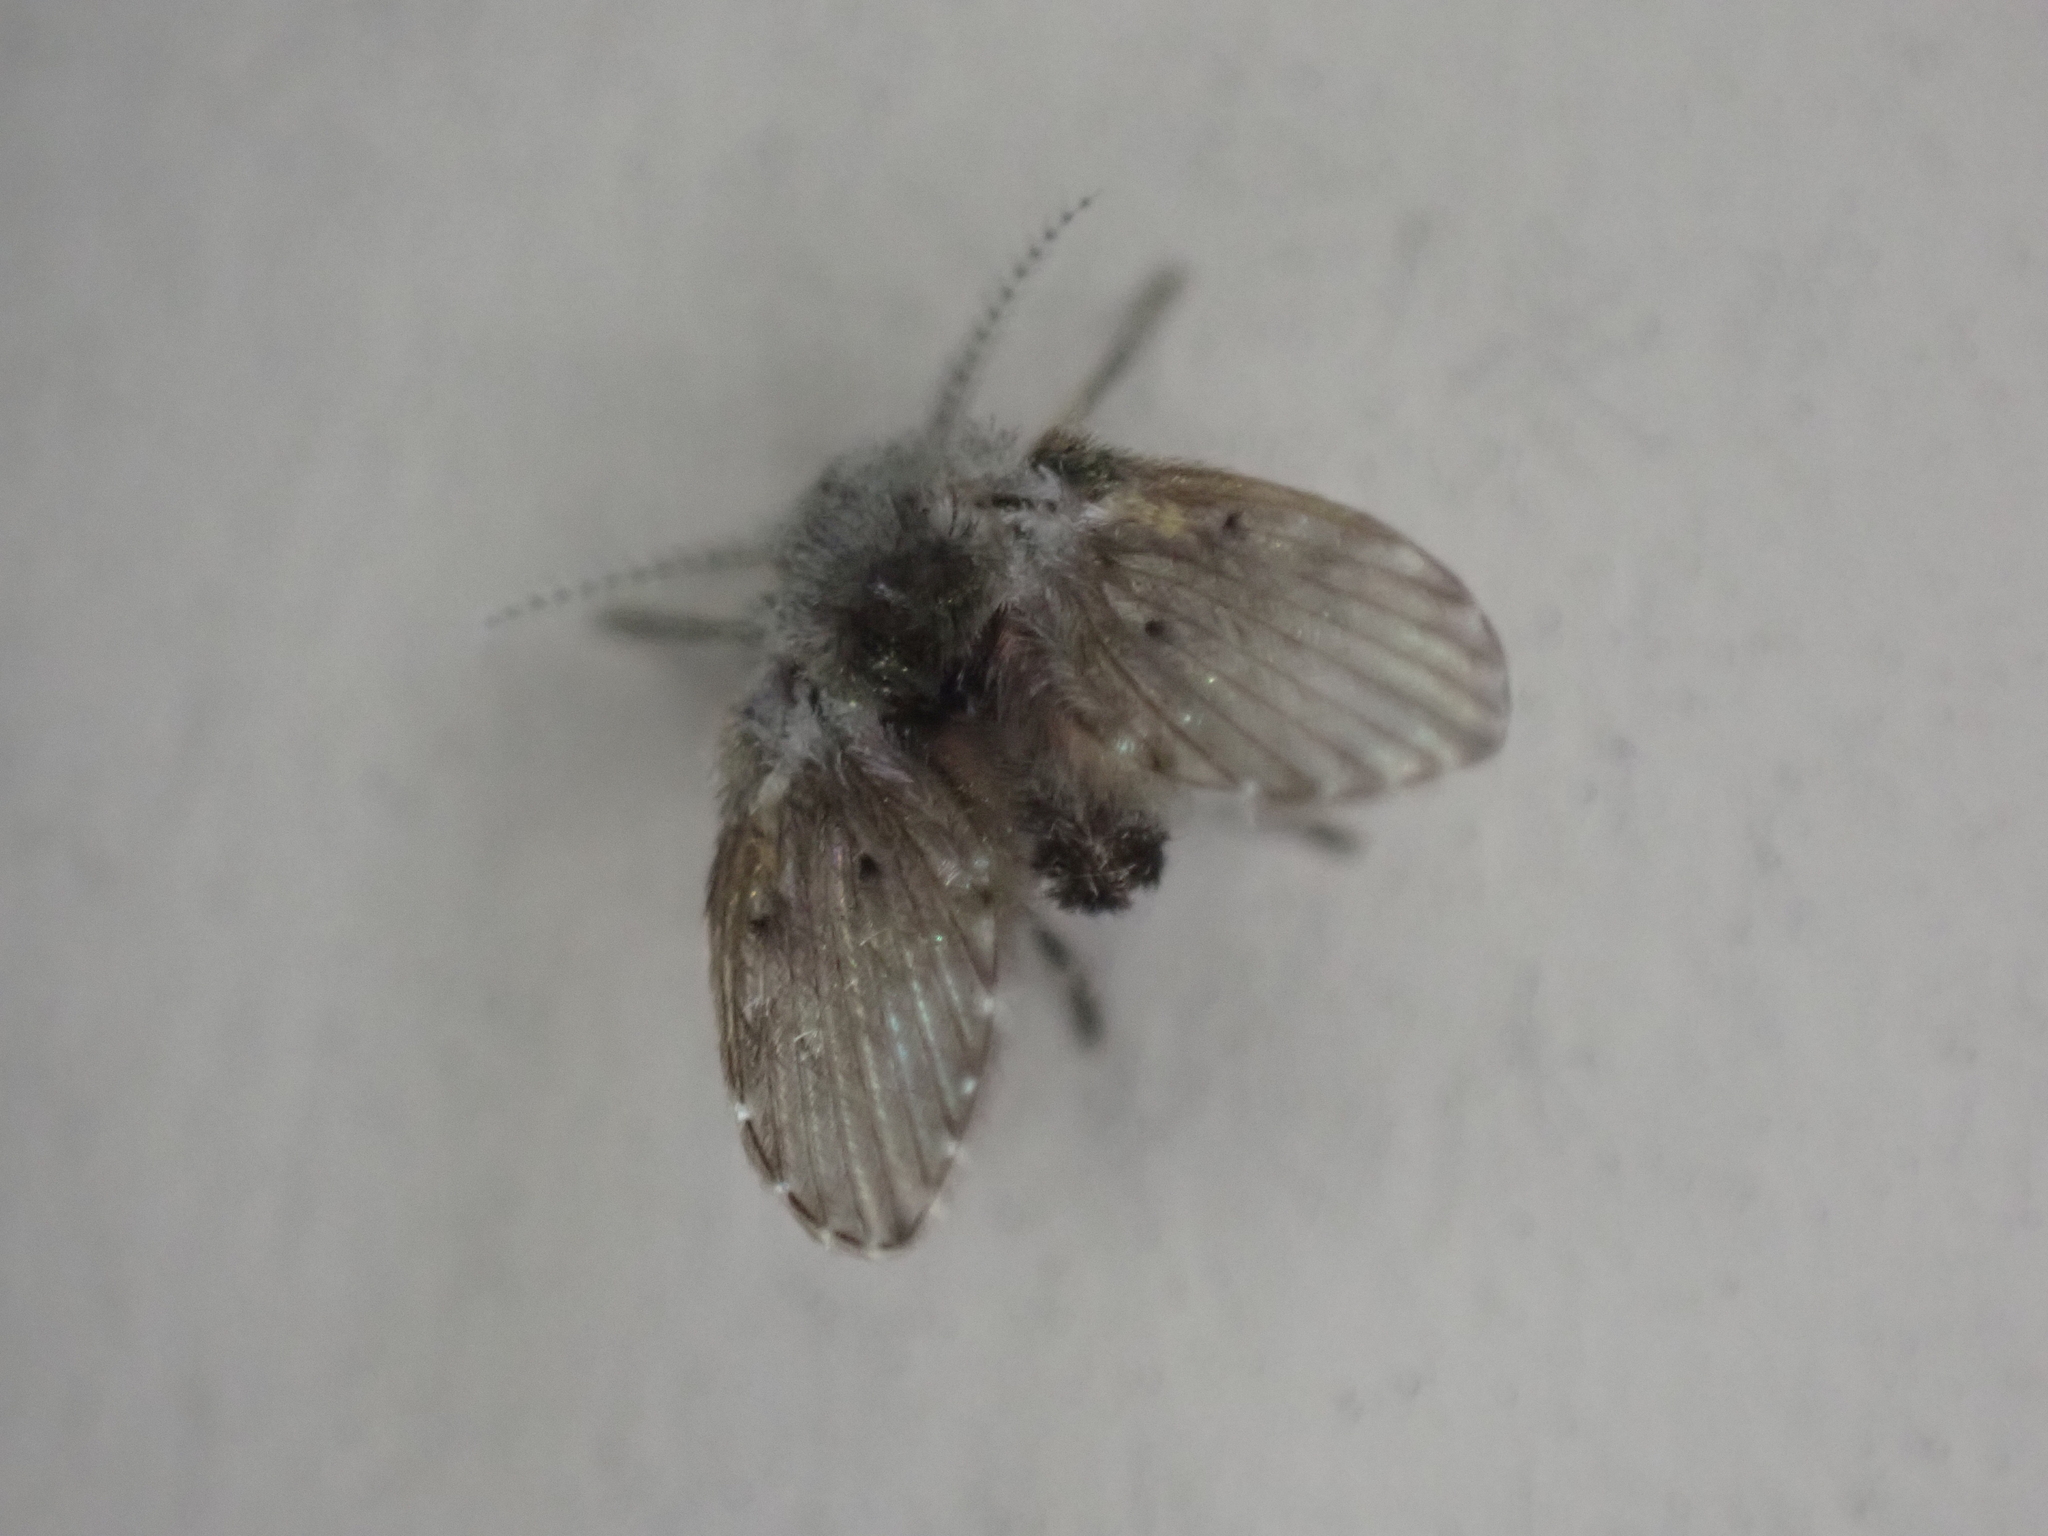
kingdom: Animalia
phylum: Arthropoda
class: Insecta
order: Diptera
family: Psychodidae
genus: Clogmia
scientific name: Clogmia albipunctatus
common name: White-spotted moth fly
